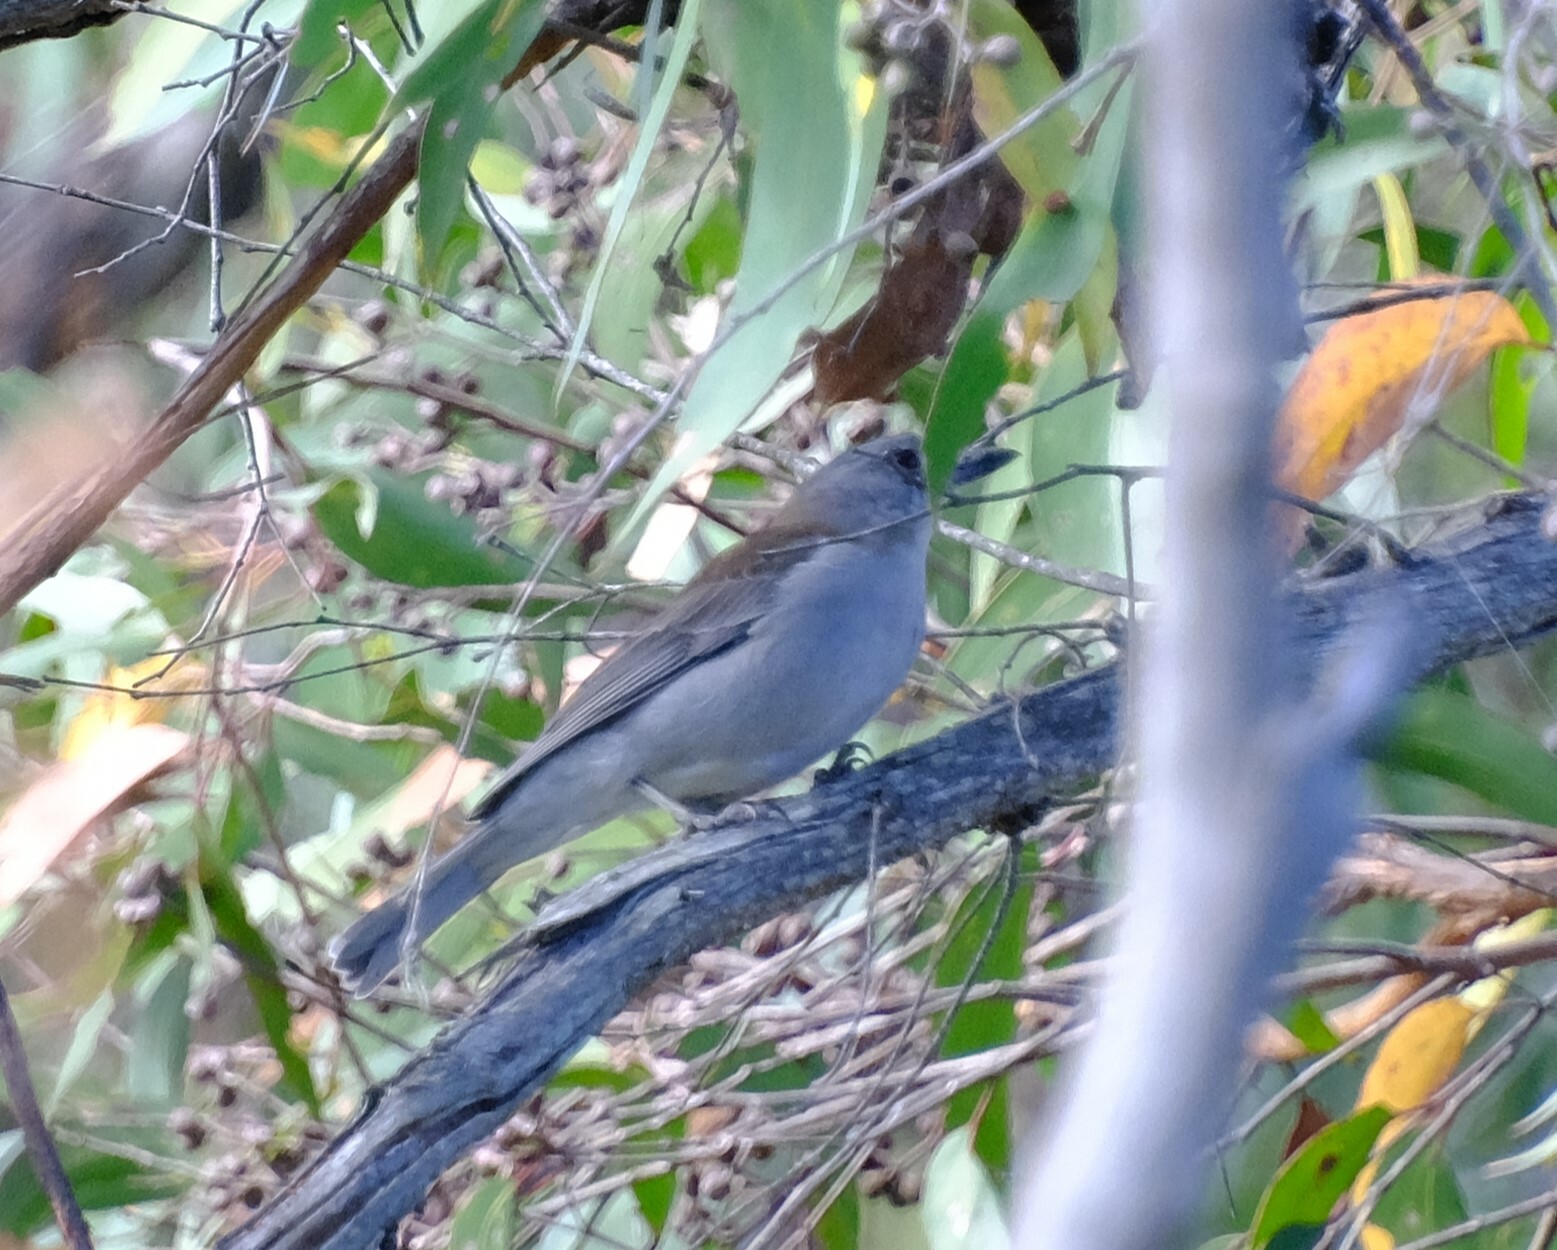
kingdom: Animalia
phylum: Chordata
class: Aves
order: Passeriformes
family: Pachycephalidae
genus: Colluricincla
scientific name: Colluricincla harmonica
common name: Grey shrikethrush
